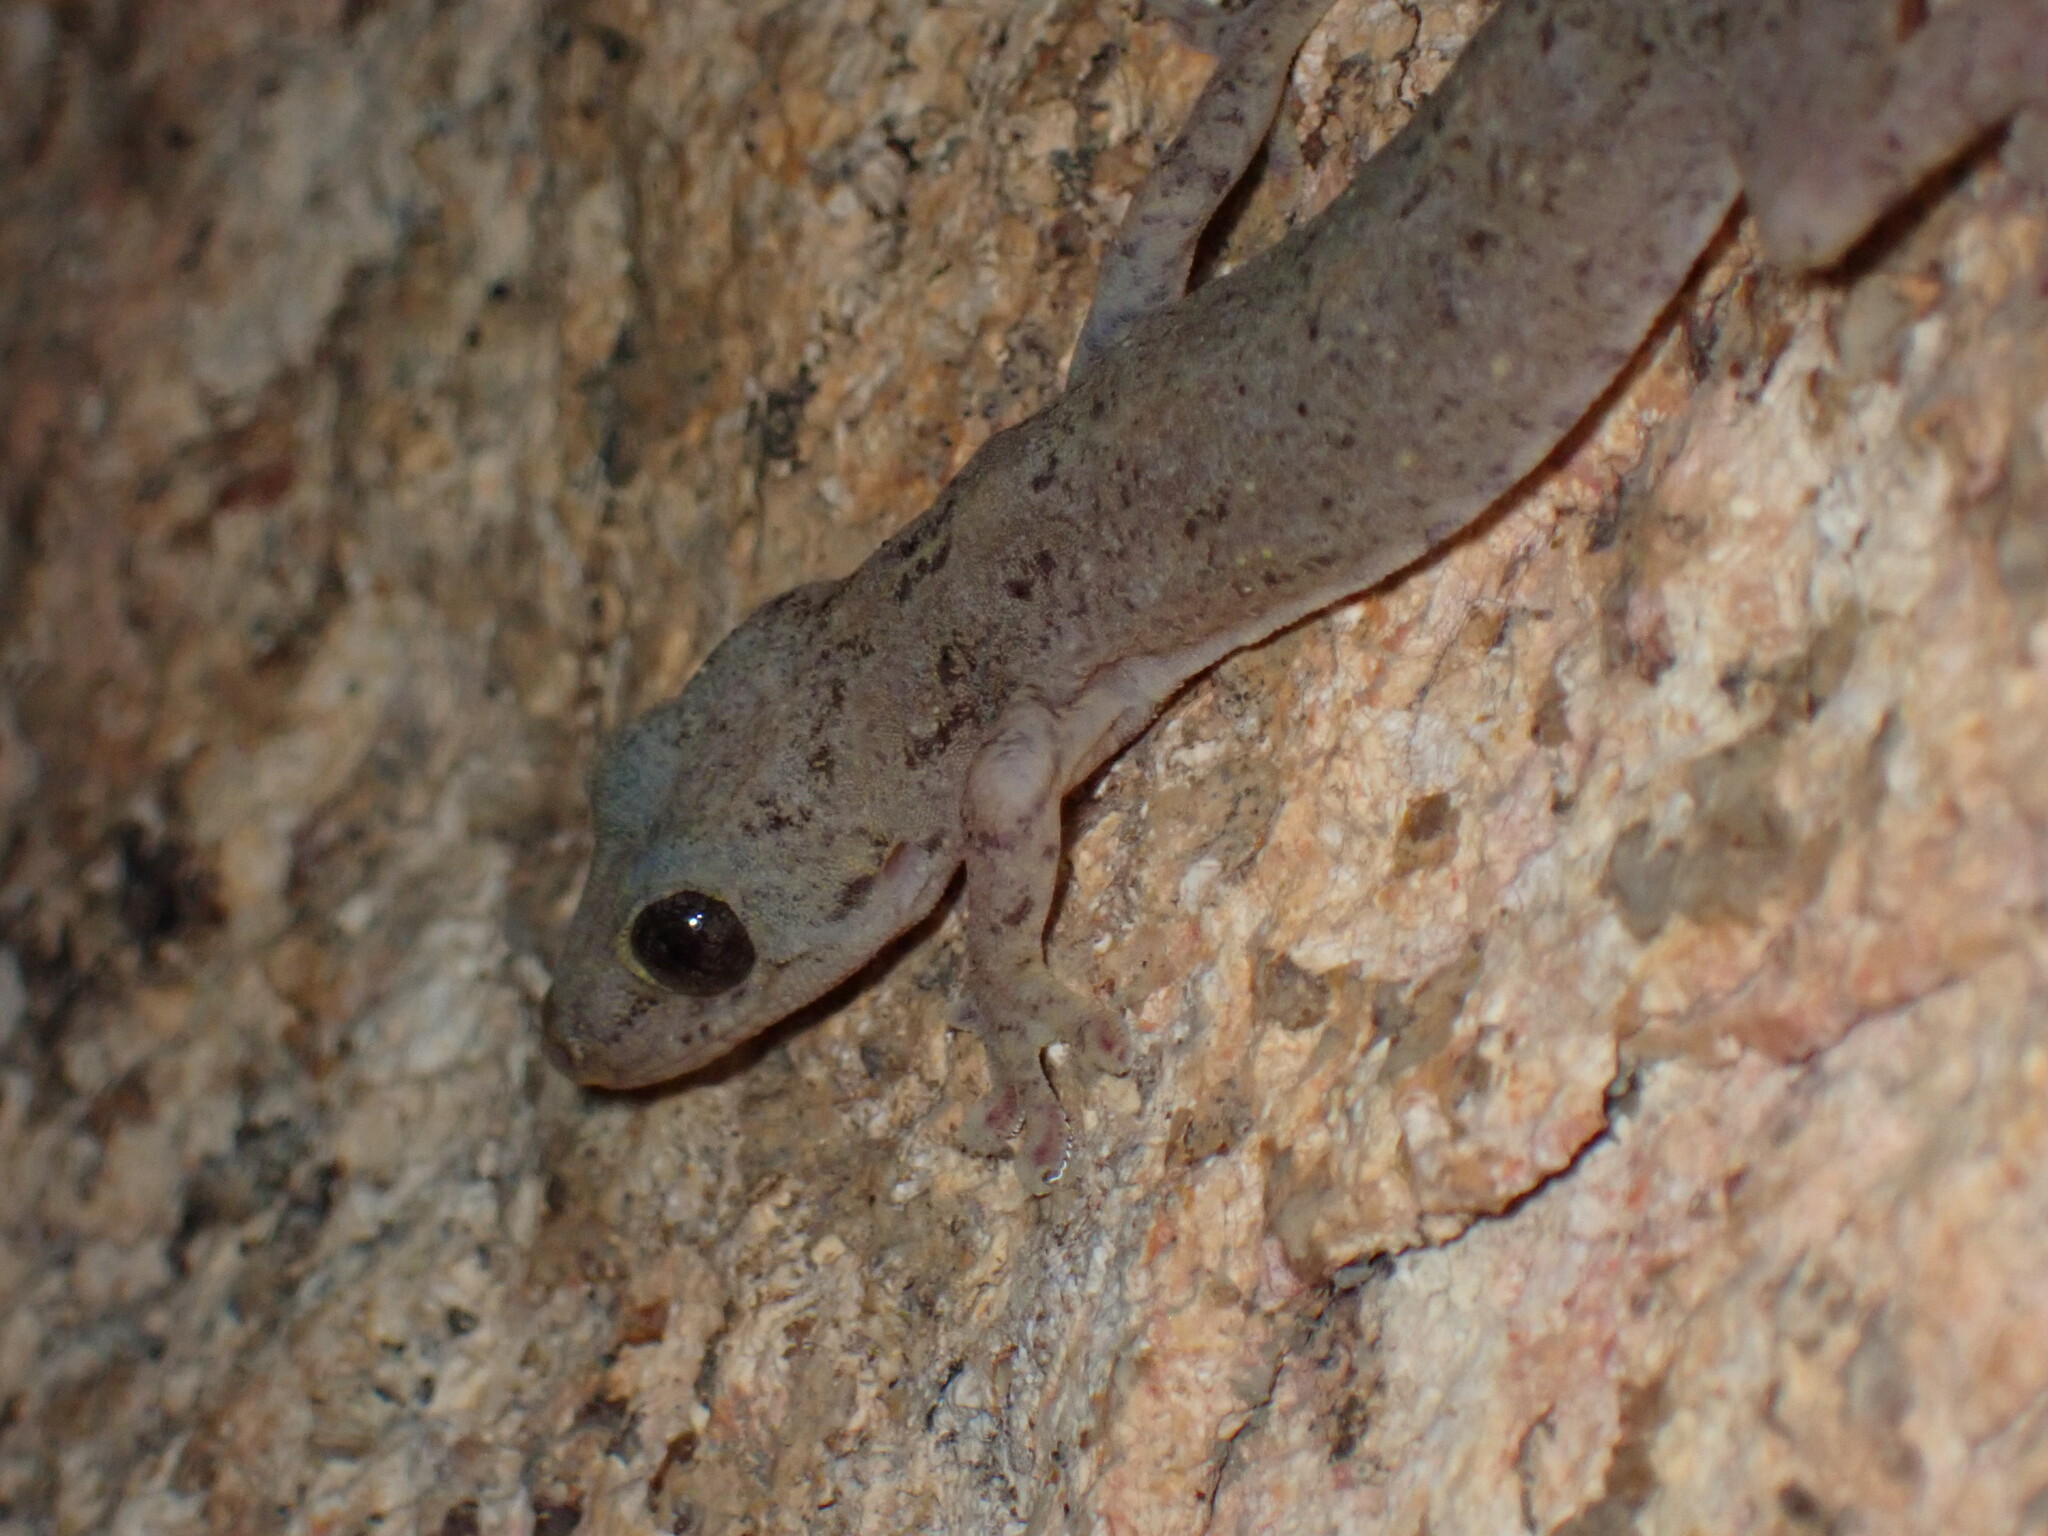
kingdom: Animalia
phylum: Chordata
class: Squamata
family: Gekkonidae
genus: Hemidactylus
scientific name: Hemidactylus bowringii
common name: Oriental leaf-toed gecko
